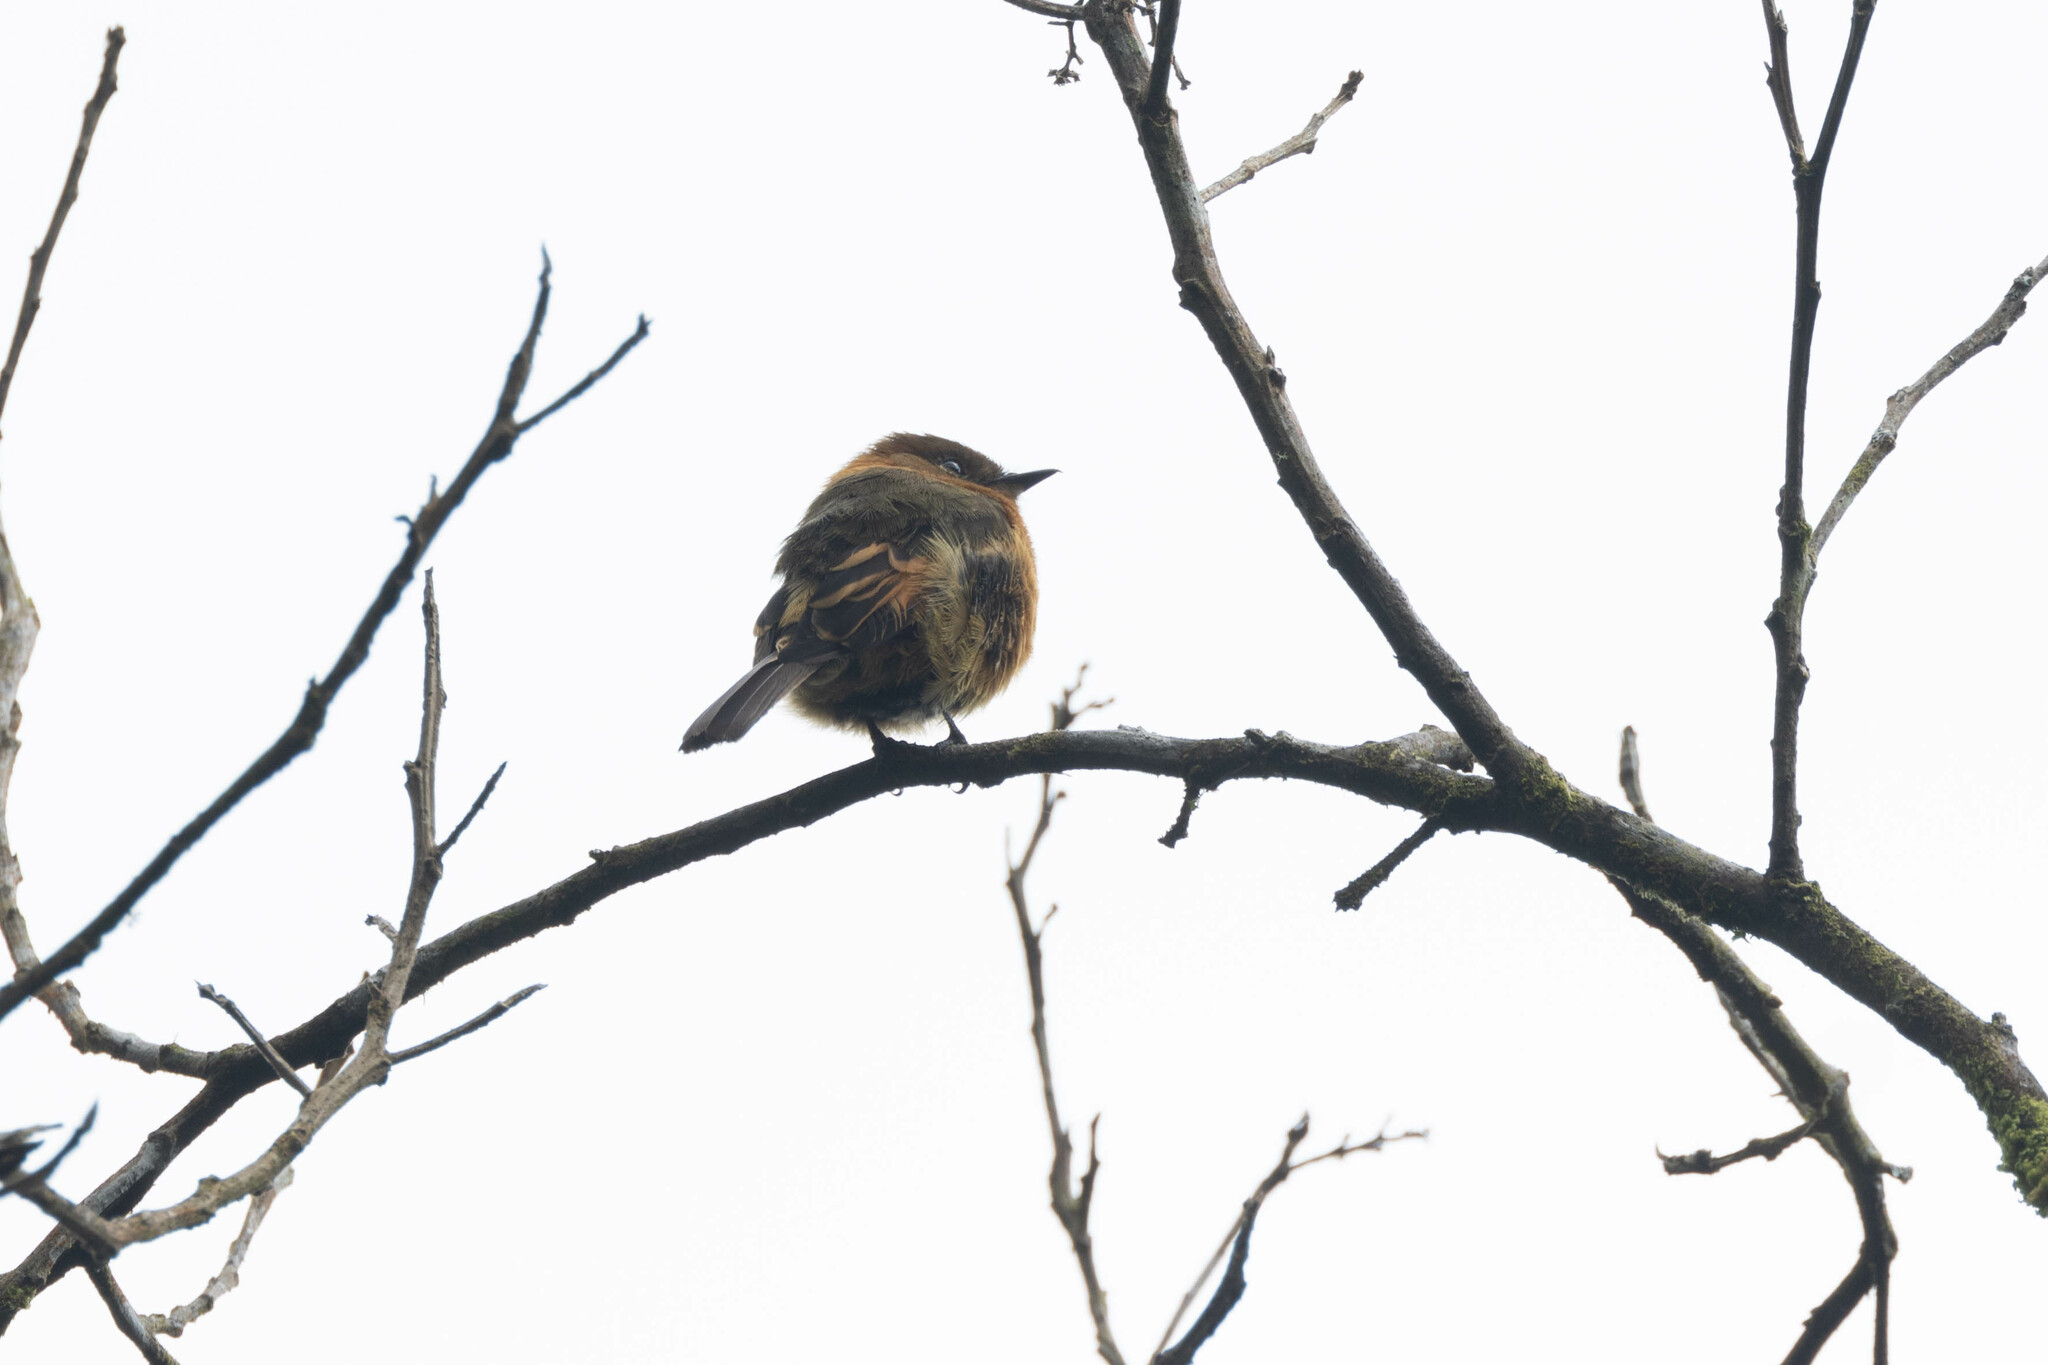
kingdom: Animalia
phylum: Chordata
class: Aves
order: Passeriformes
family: Tyrannidae
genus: Pyrrhomyias
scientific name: Pyrrhomyias cinnamomeus
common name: Cinnamon flycatcher
